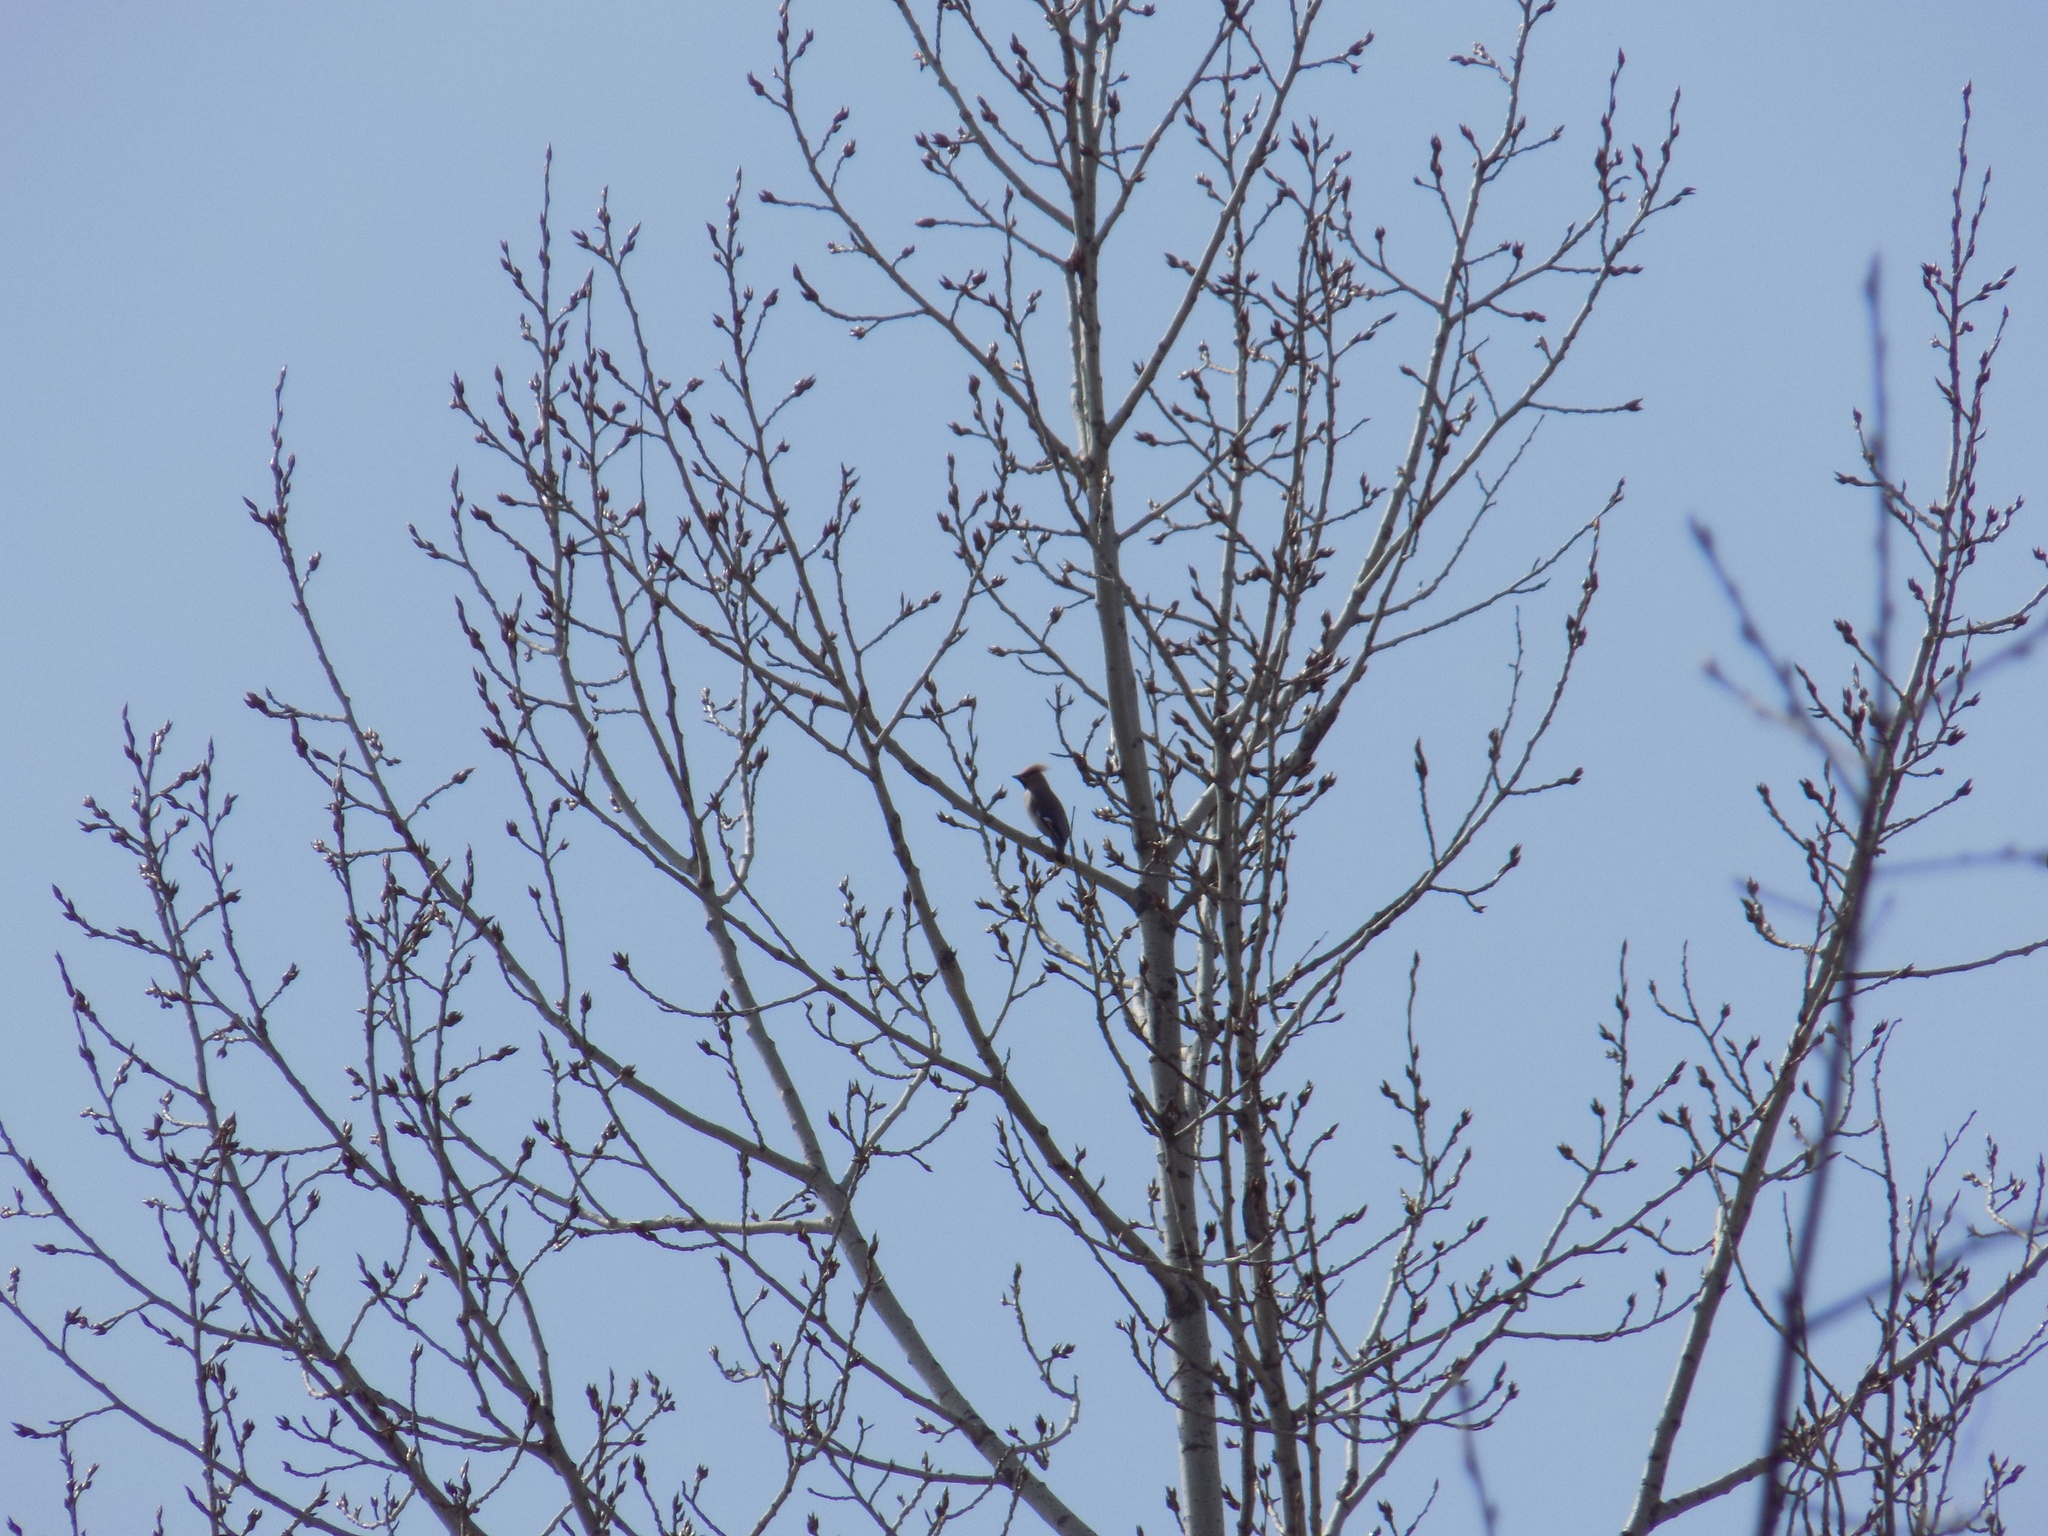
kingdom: Animalia
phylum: Chordata
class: Aves
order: Passeriformes
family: Bombycillidae
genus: Bombycilla
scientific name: Bombycilla garrulus
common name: Bohemian waxwing
